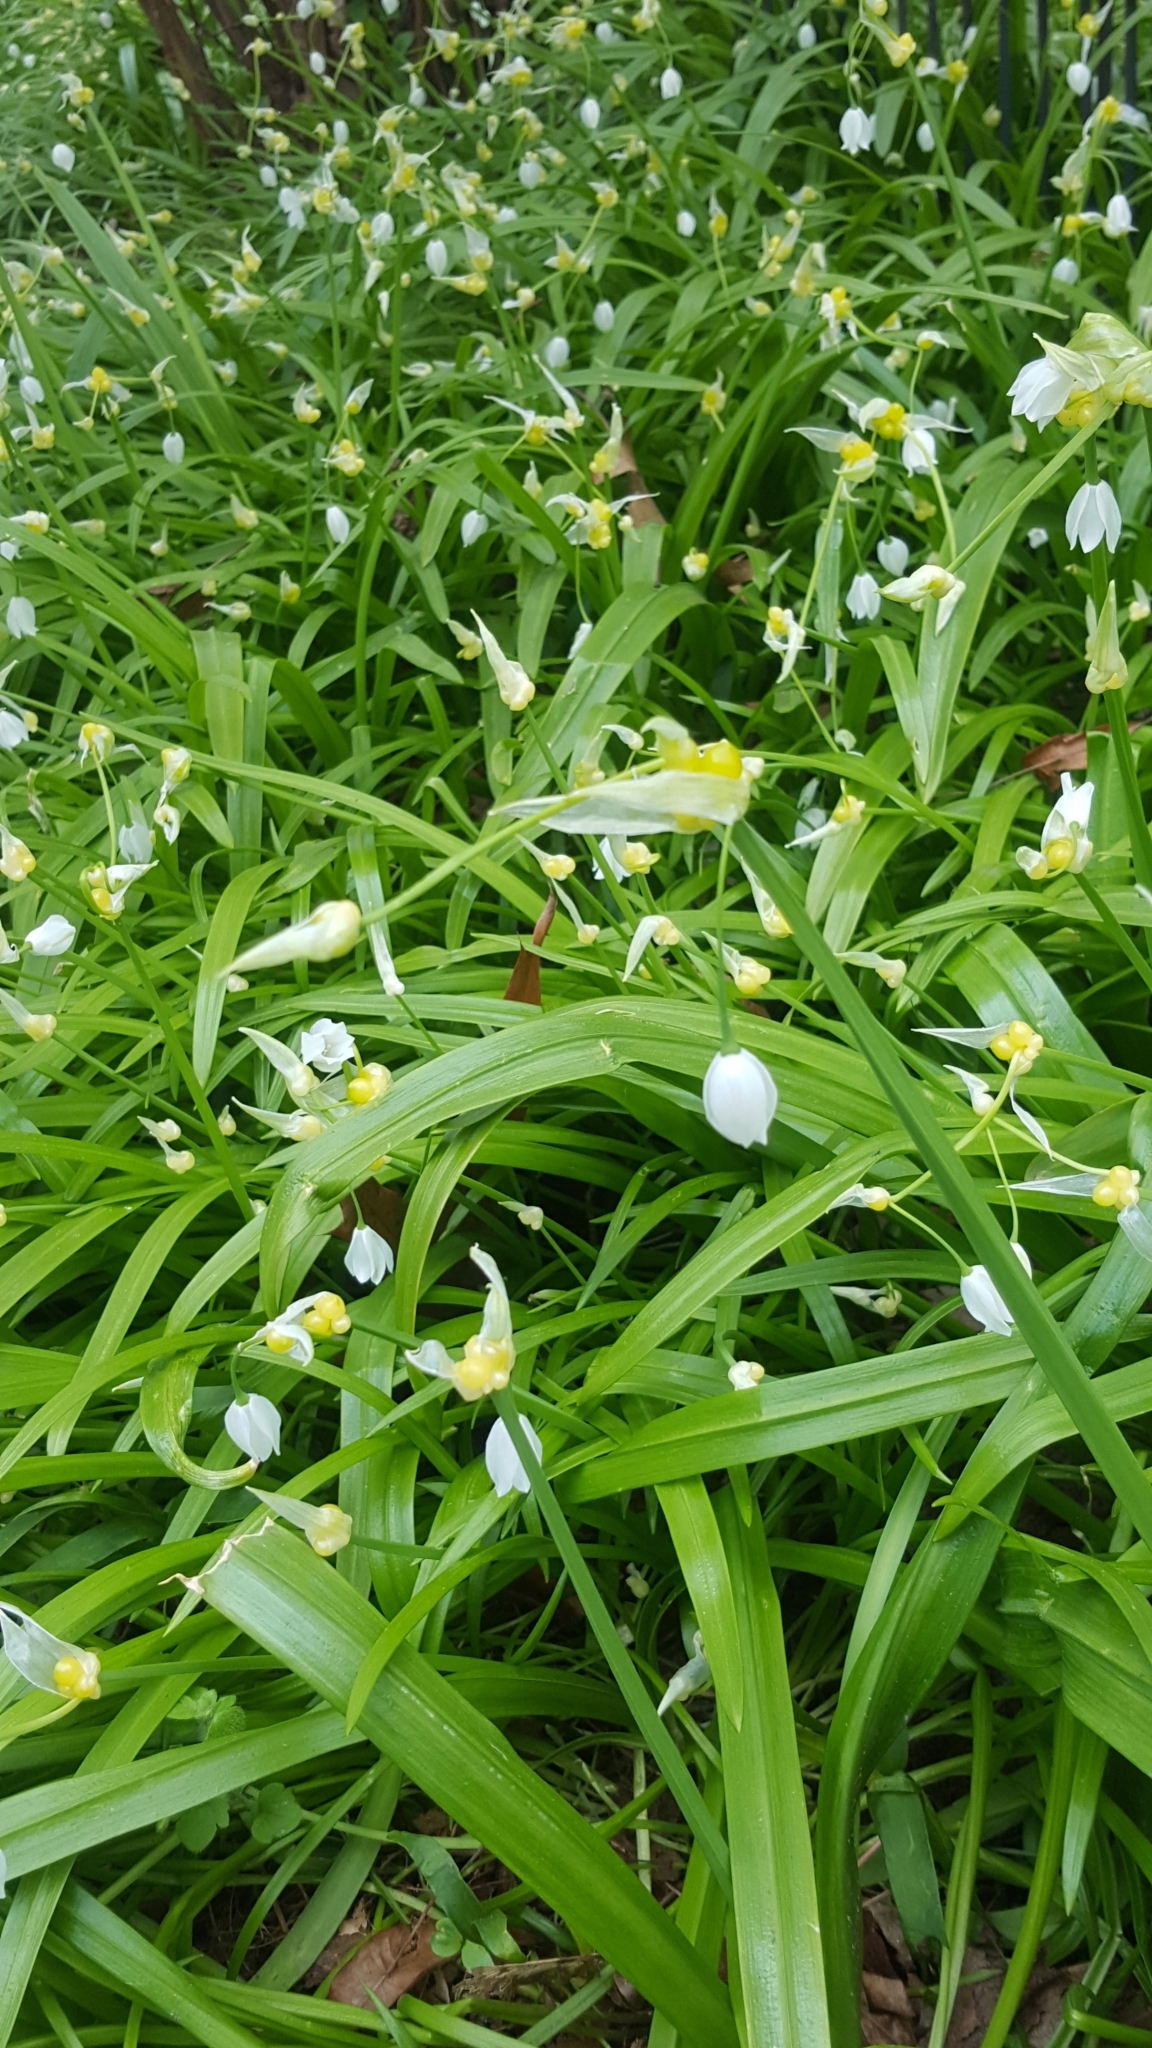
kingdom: Plantae
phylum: Tracheophyta
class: Liliopsida
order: Asparagales
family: Amaryllidaceae
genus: Allium
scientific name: Allium paradoxum
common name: Few-flowered garlic
